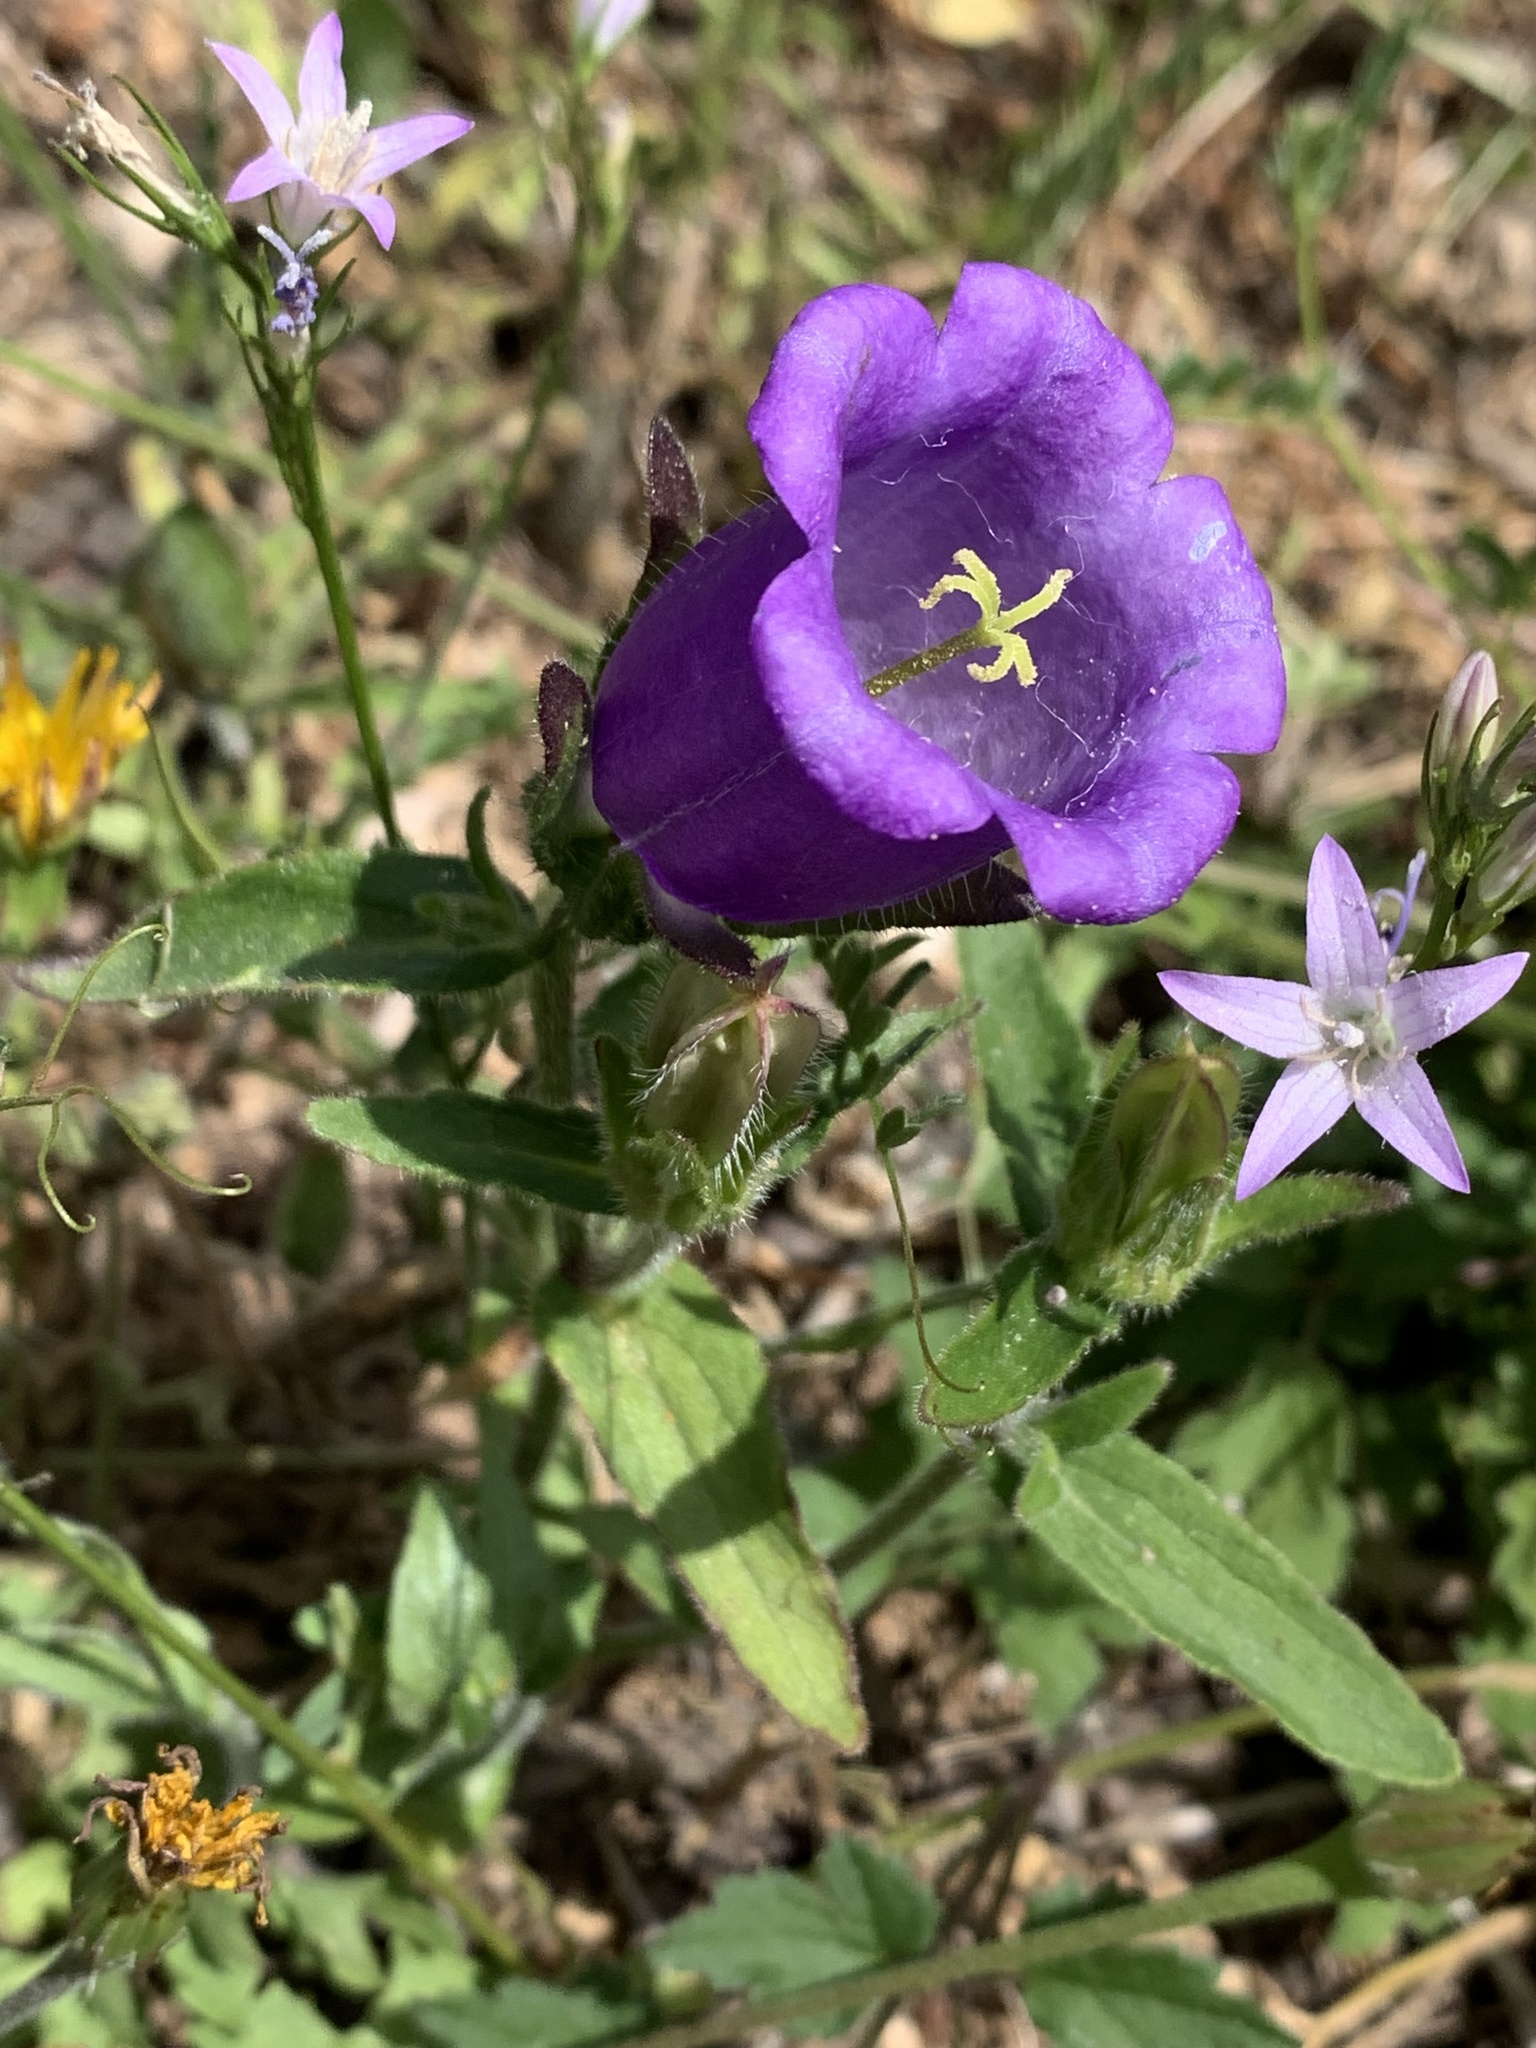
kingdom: Plantae
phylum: Tracheophyta
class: Magnoliopsida
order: Asterales
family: Campanulaceae
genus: Campanula
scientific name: Campanula medium
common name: Canterbury bells
